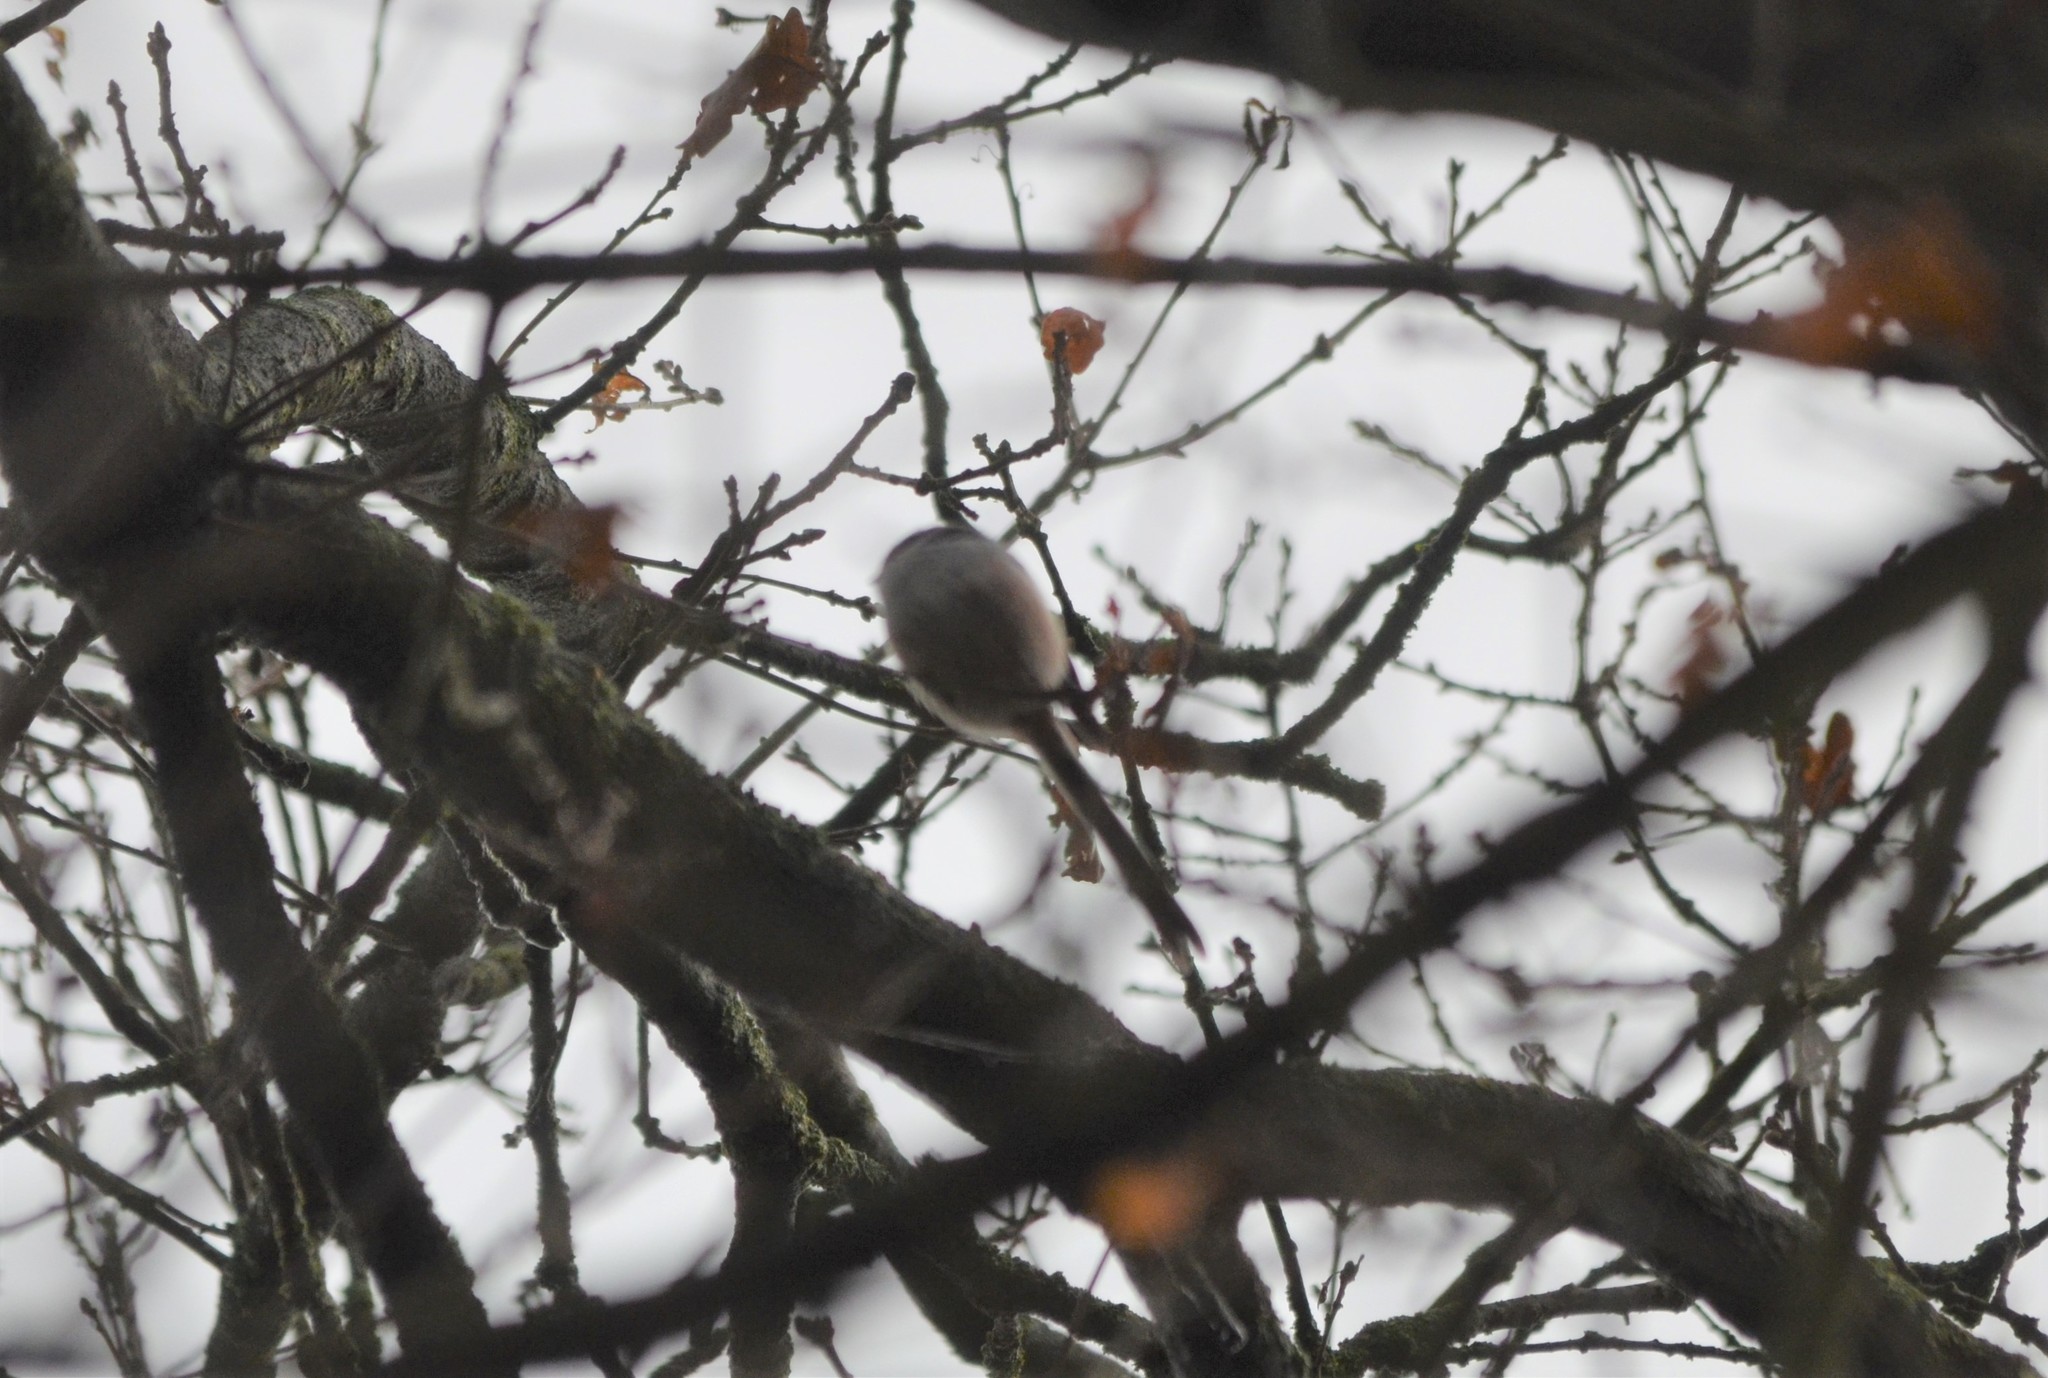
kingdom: Animalia
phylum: Chordata
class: Aves
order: Passeriformes
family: Aegithalidae
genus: Aegithalos
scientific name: Aegithalos caudatus
